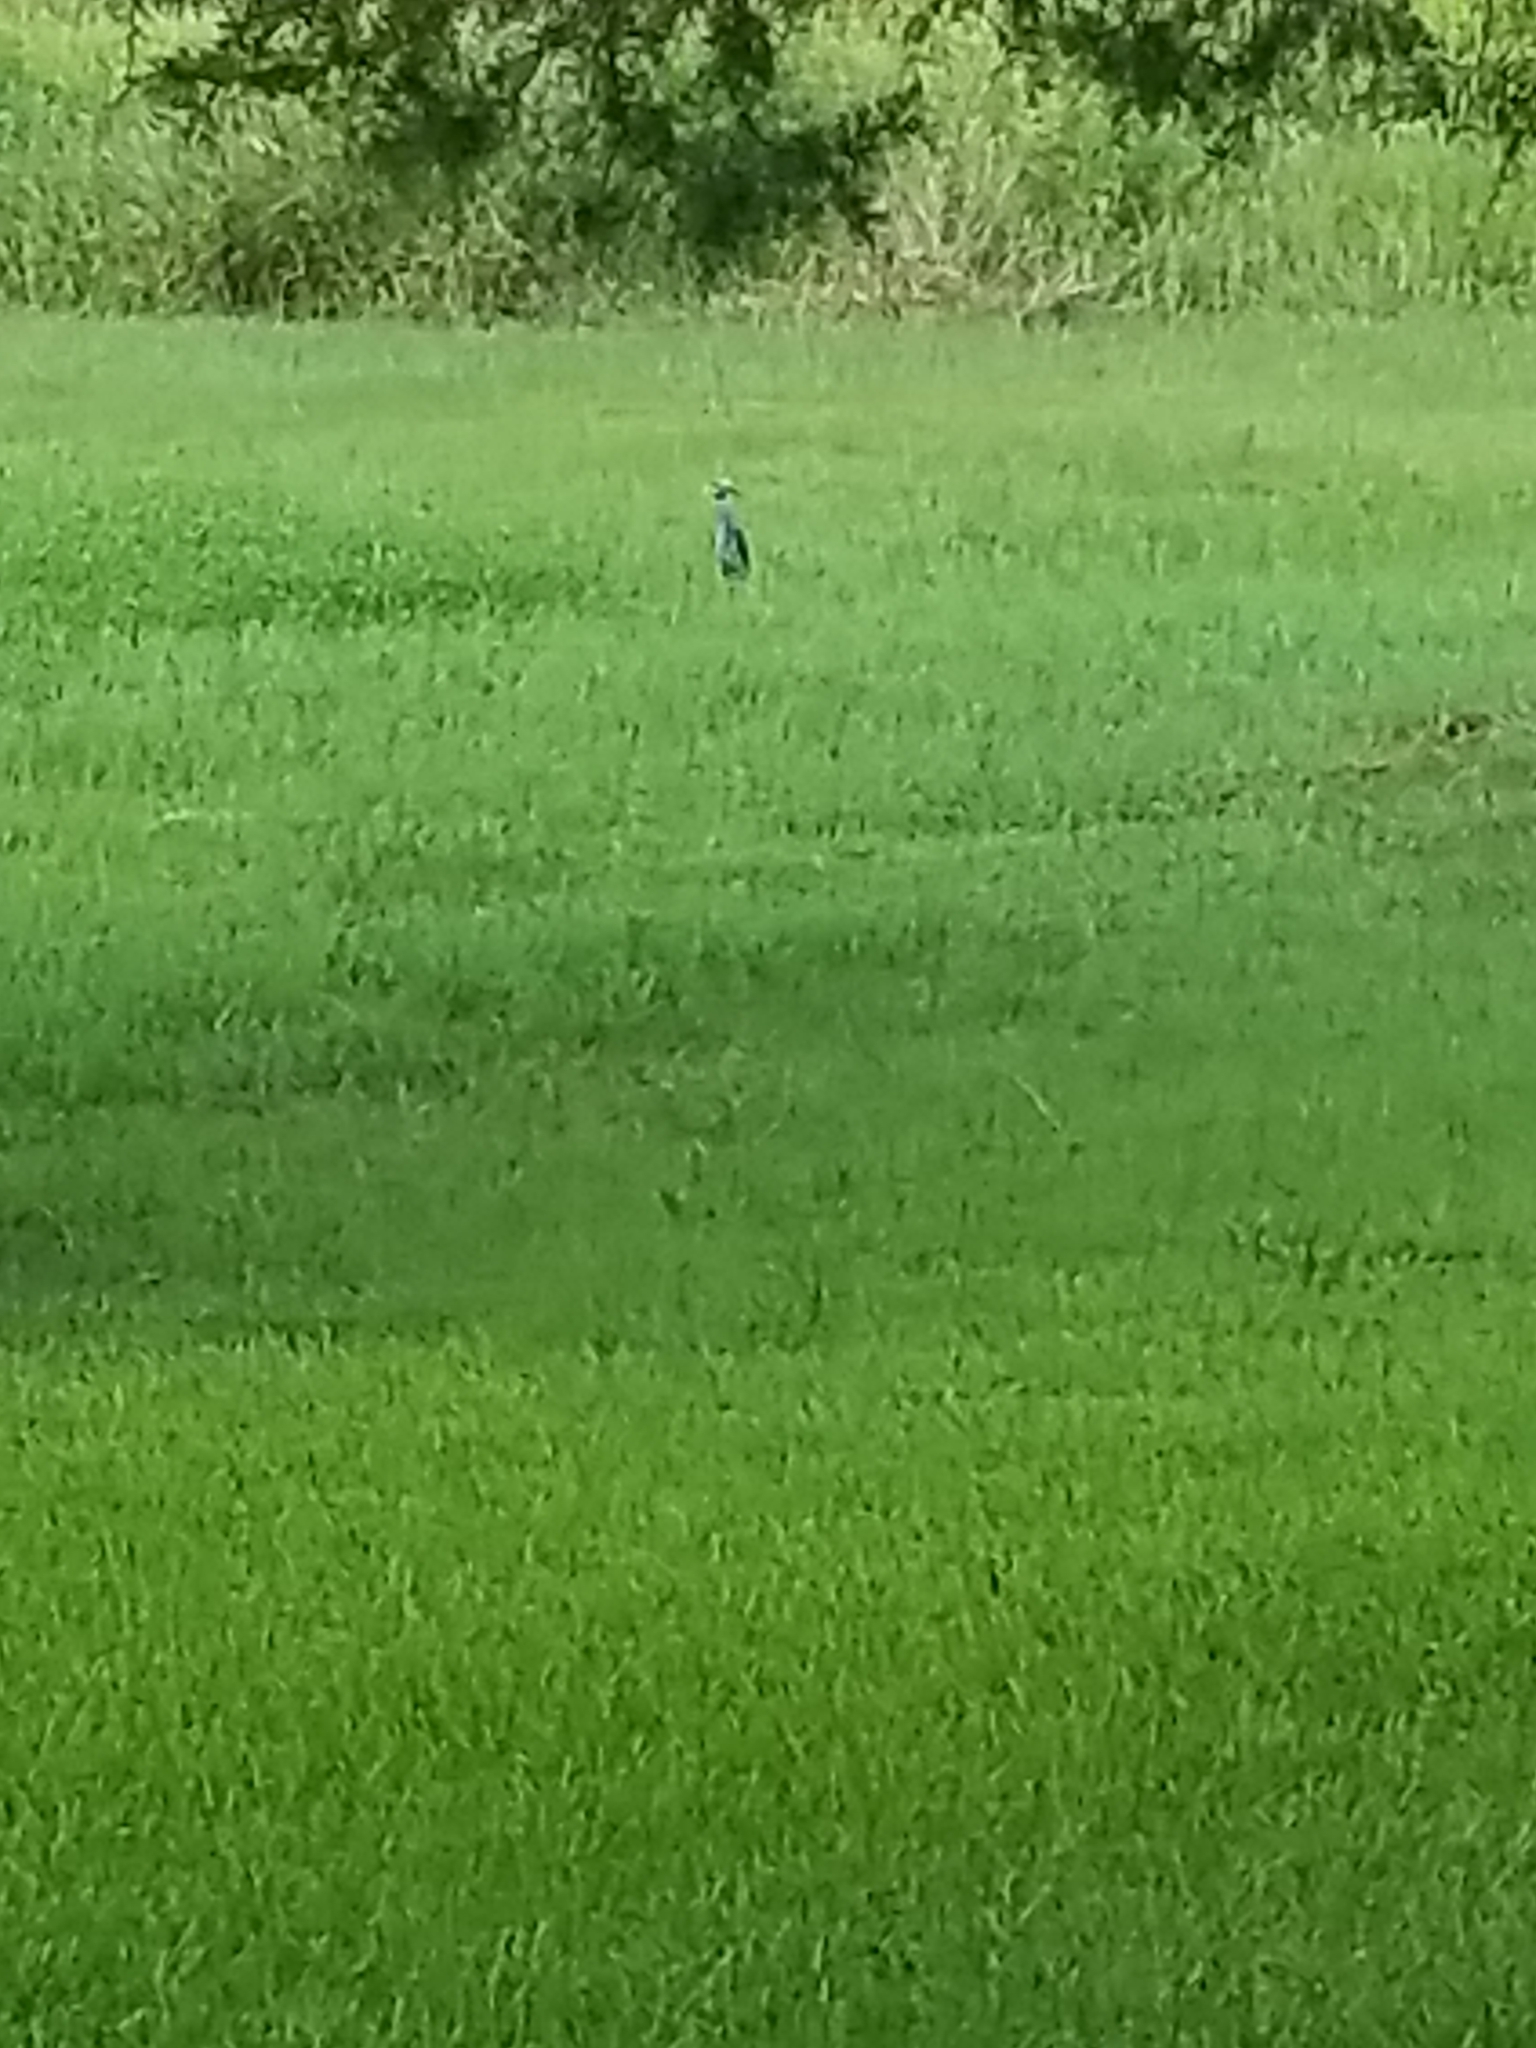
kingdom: Animalia
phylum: Chordata
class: Aves
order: Pelecaniformes
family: Ardeidae
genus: Nyctanassa
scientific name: Nyctanassa violacea
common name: Yellow-crowned night heron
